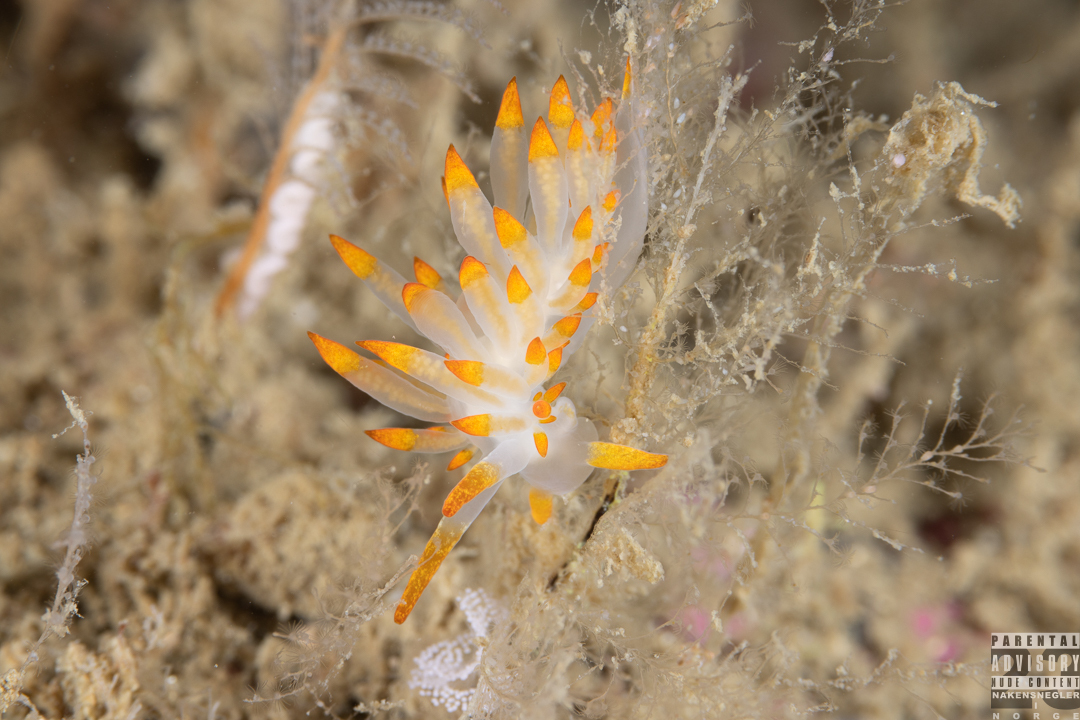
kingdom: Animalia
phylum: Mollusca
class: Gastropoda
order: Nudibranchia
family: Eubranchidae
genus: Amphorina
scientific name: Amphorina farrani
